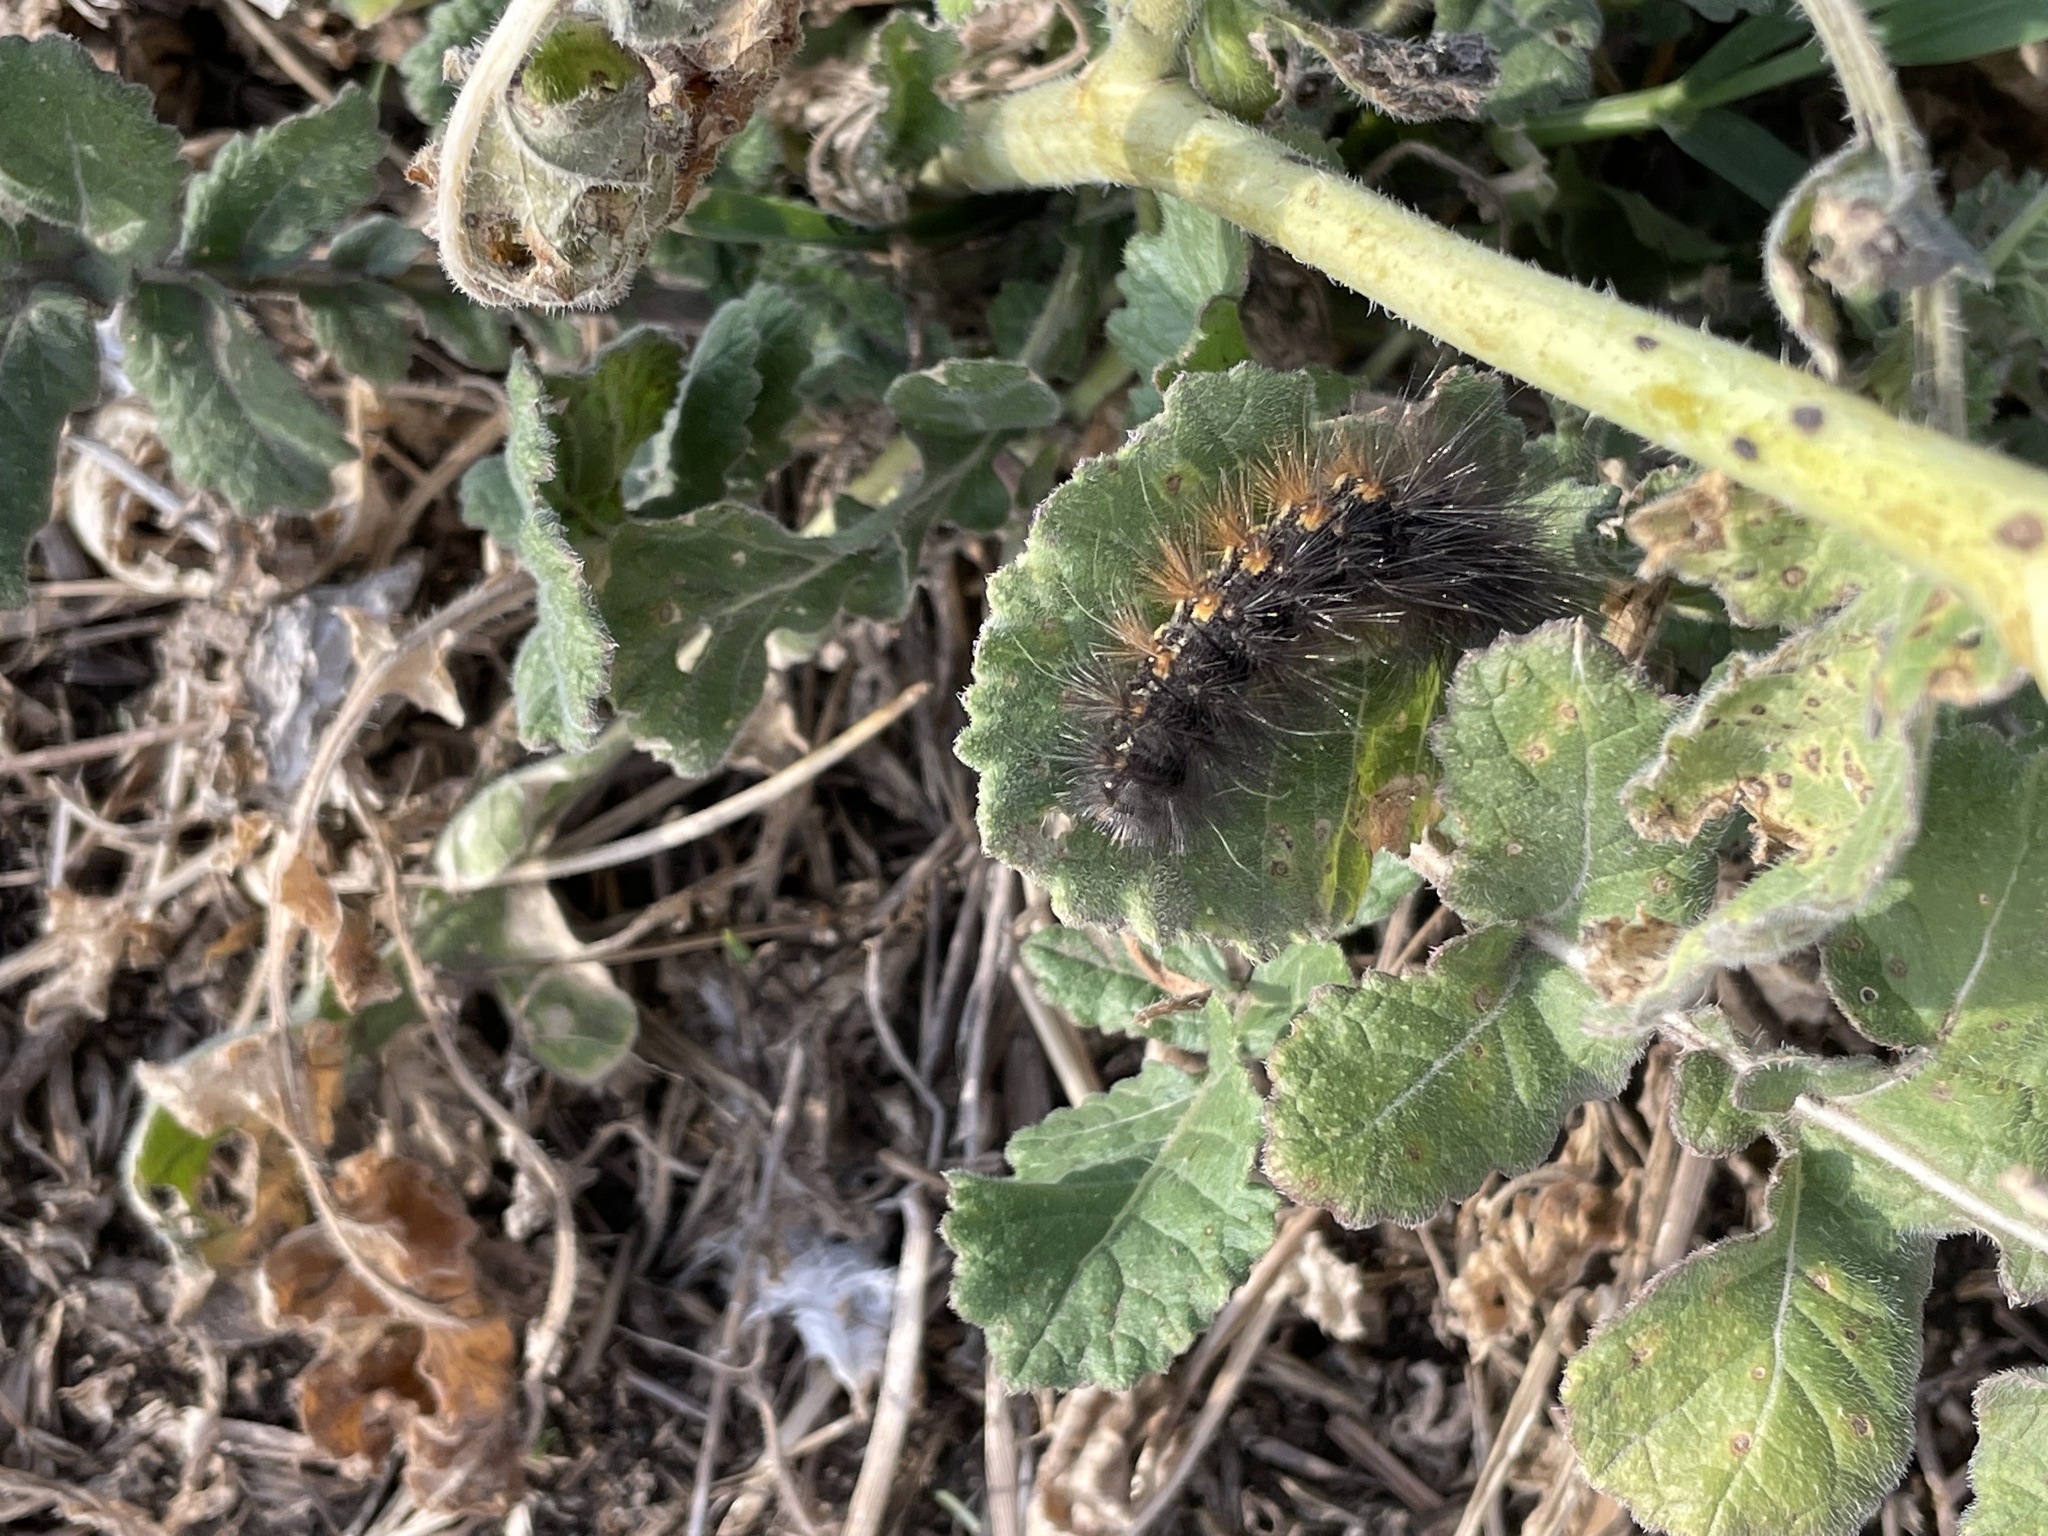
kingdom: Animalia
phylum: Arthropoda
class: Insecta
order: Lepidoptera
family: Erebidae
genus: Estigmene
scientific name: Estigmene acrea
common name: Salt marsh moth
